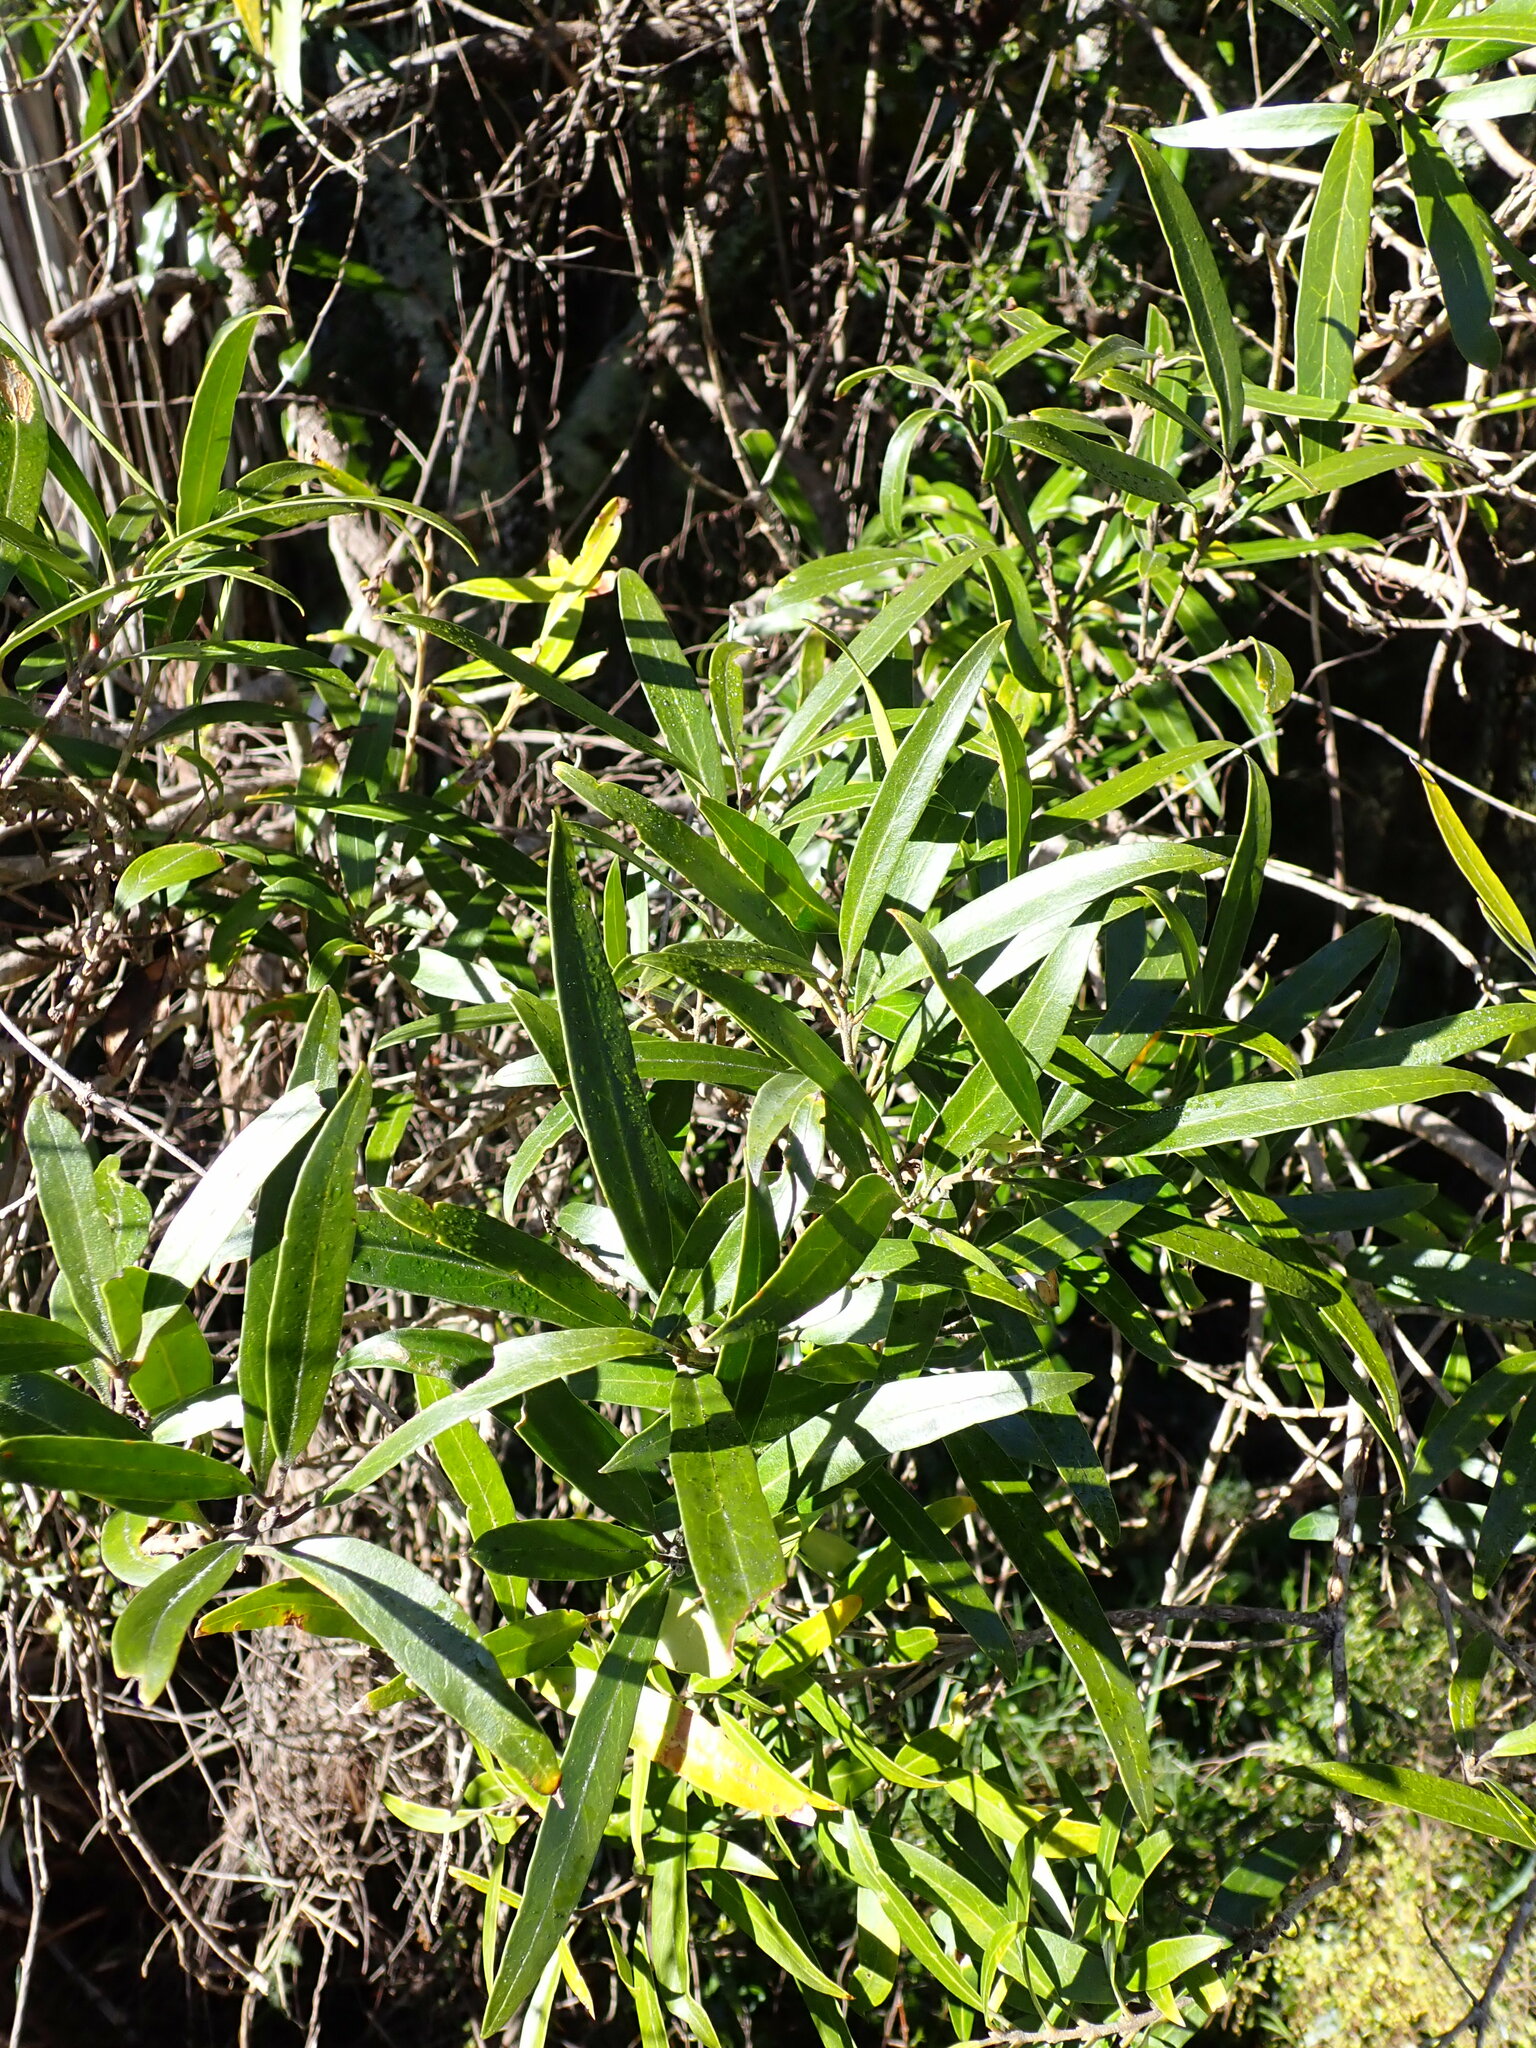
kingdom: Plantae
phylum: Tracheophyta
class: Magnoliopsida
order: Lamiales
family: Oleaceae
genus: Nestegis
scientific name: Nestegis lanceolata
